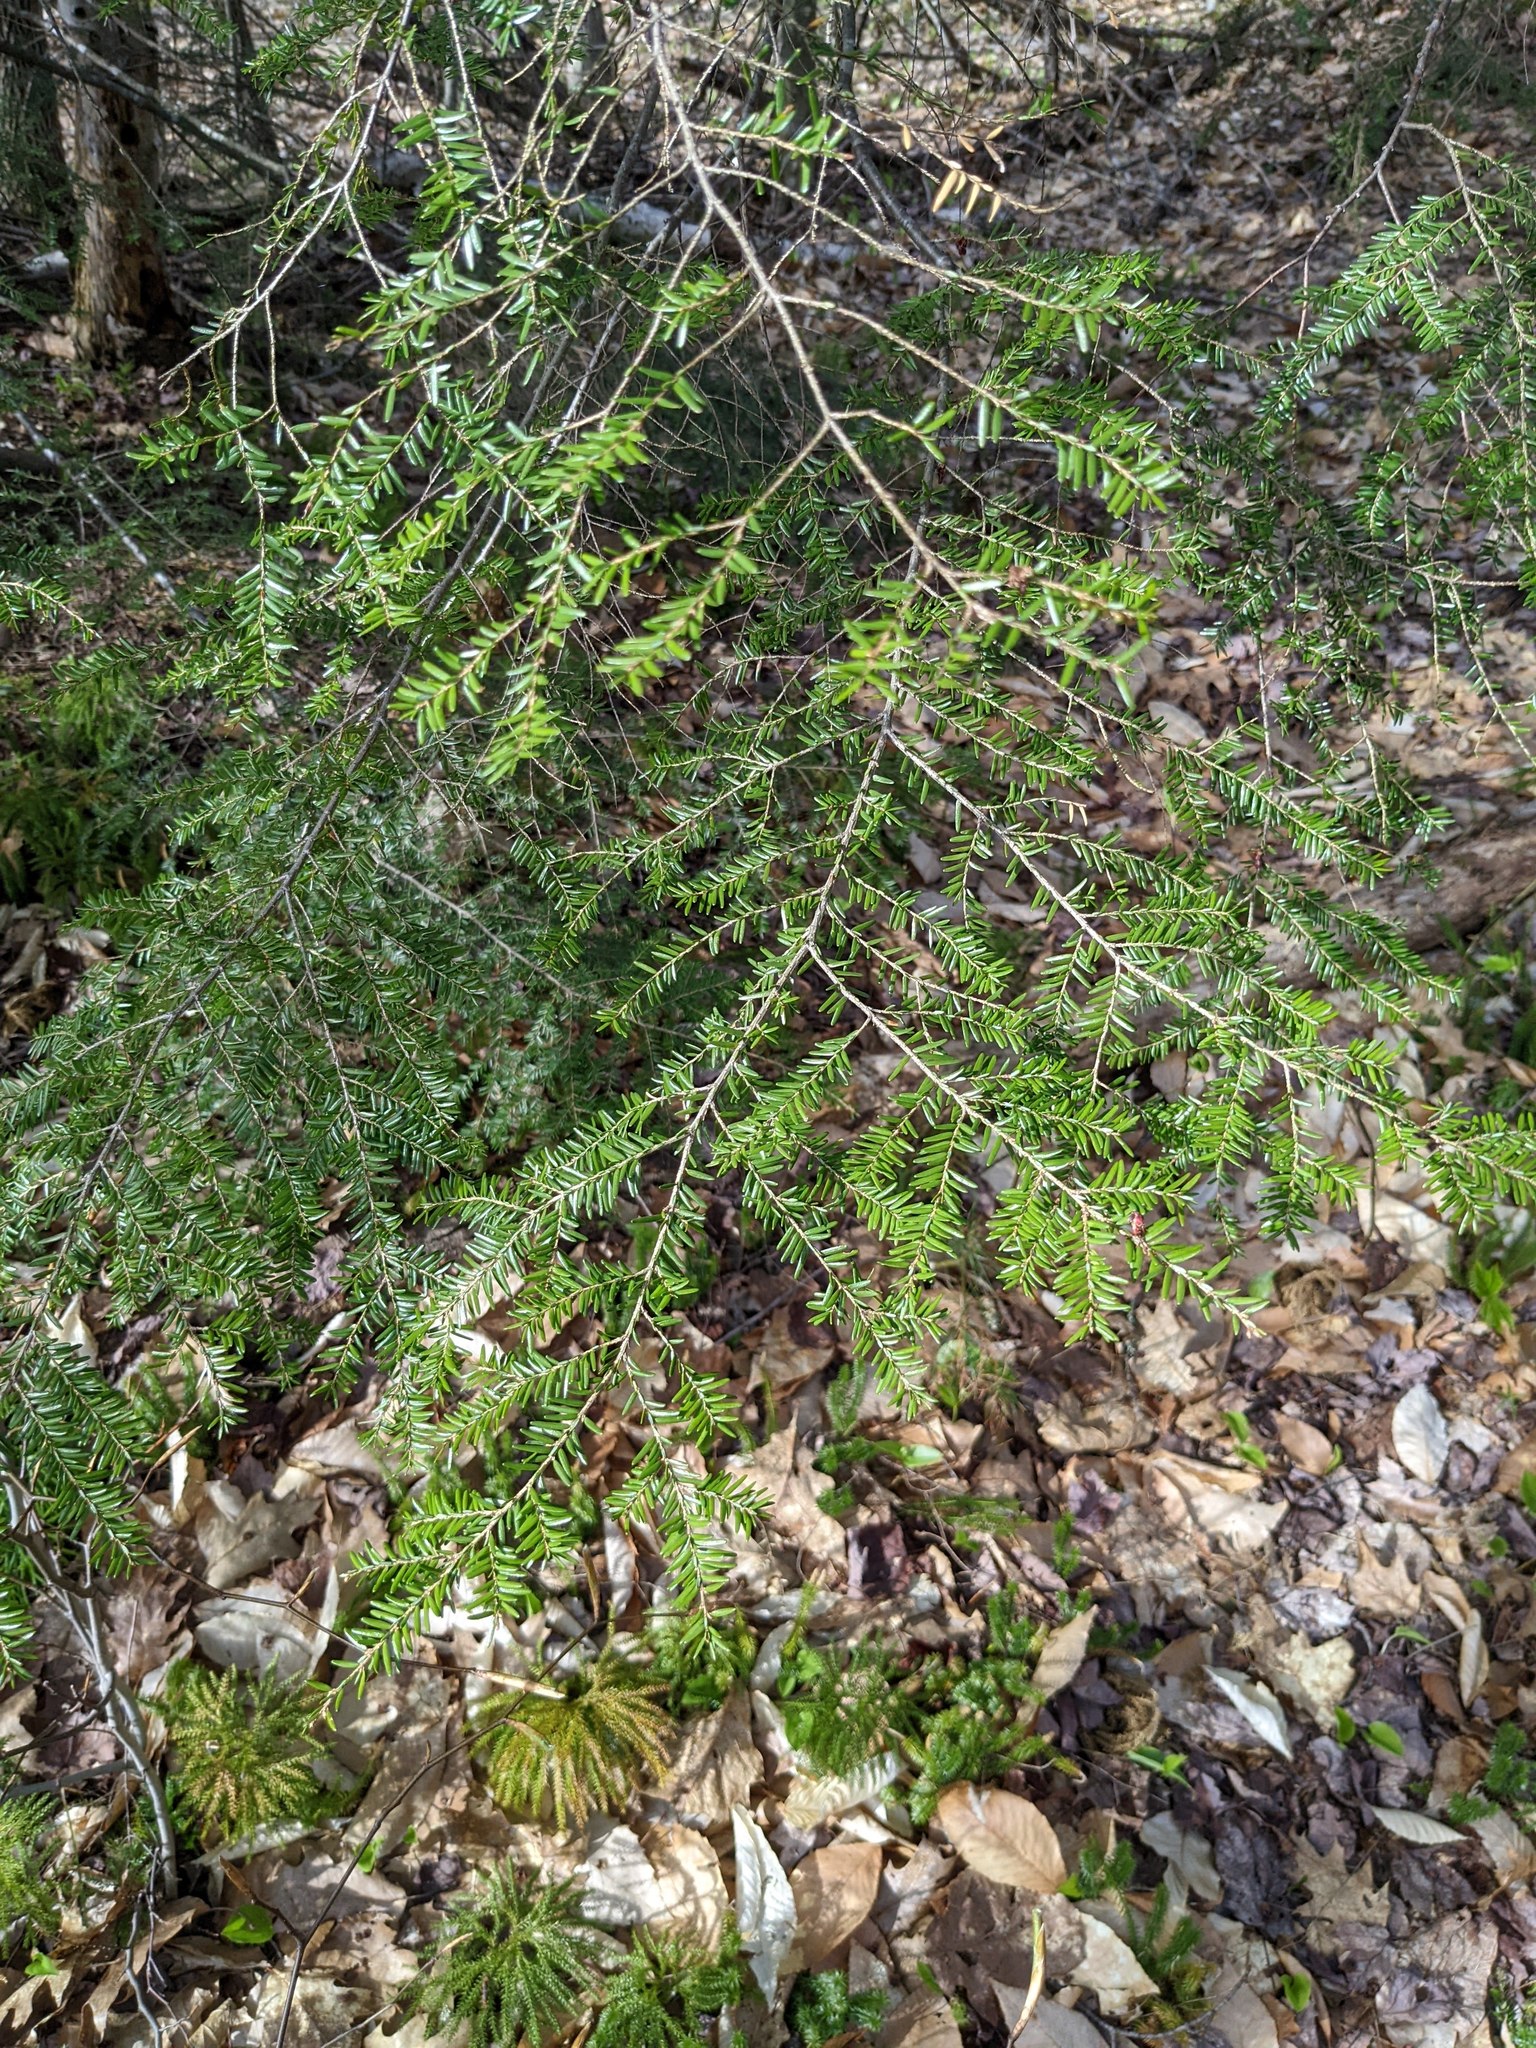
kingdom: Plantae
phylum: Tracheophyta
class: Pinopsida
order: Pinales
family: Pinaceae
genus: Tsuga
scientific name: Tsuga canadensis
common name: Eastern hemlock
